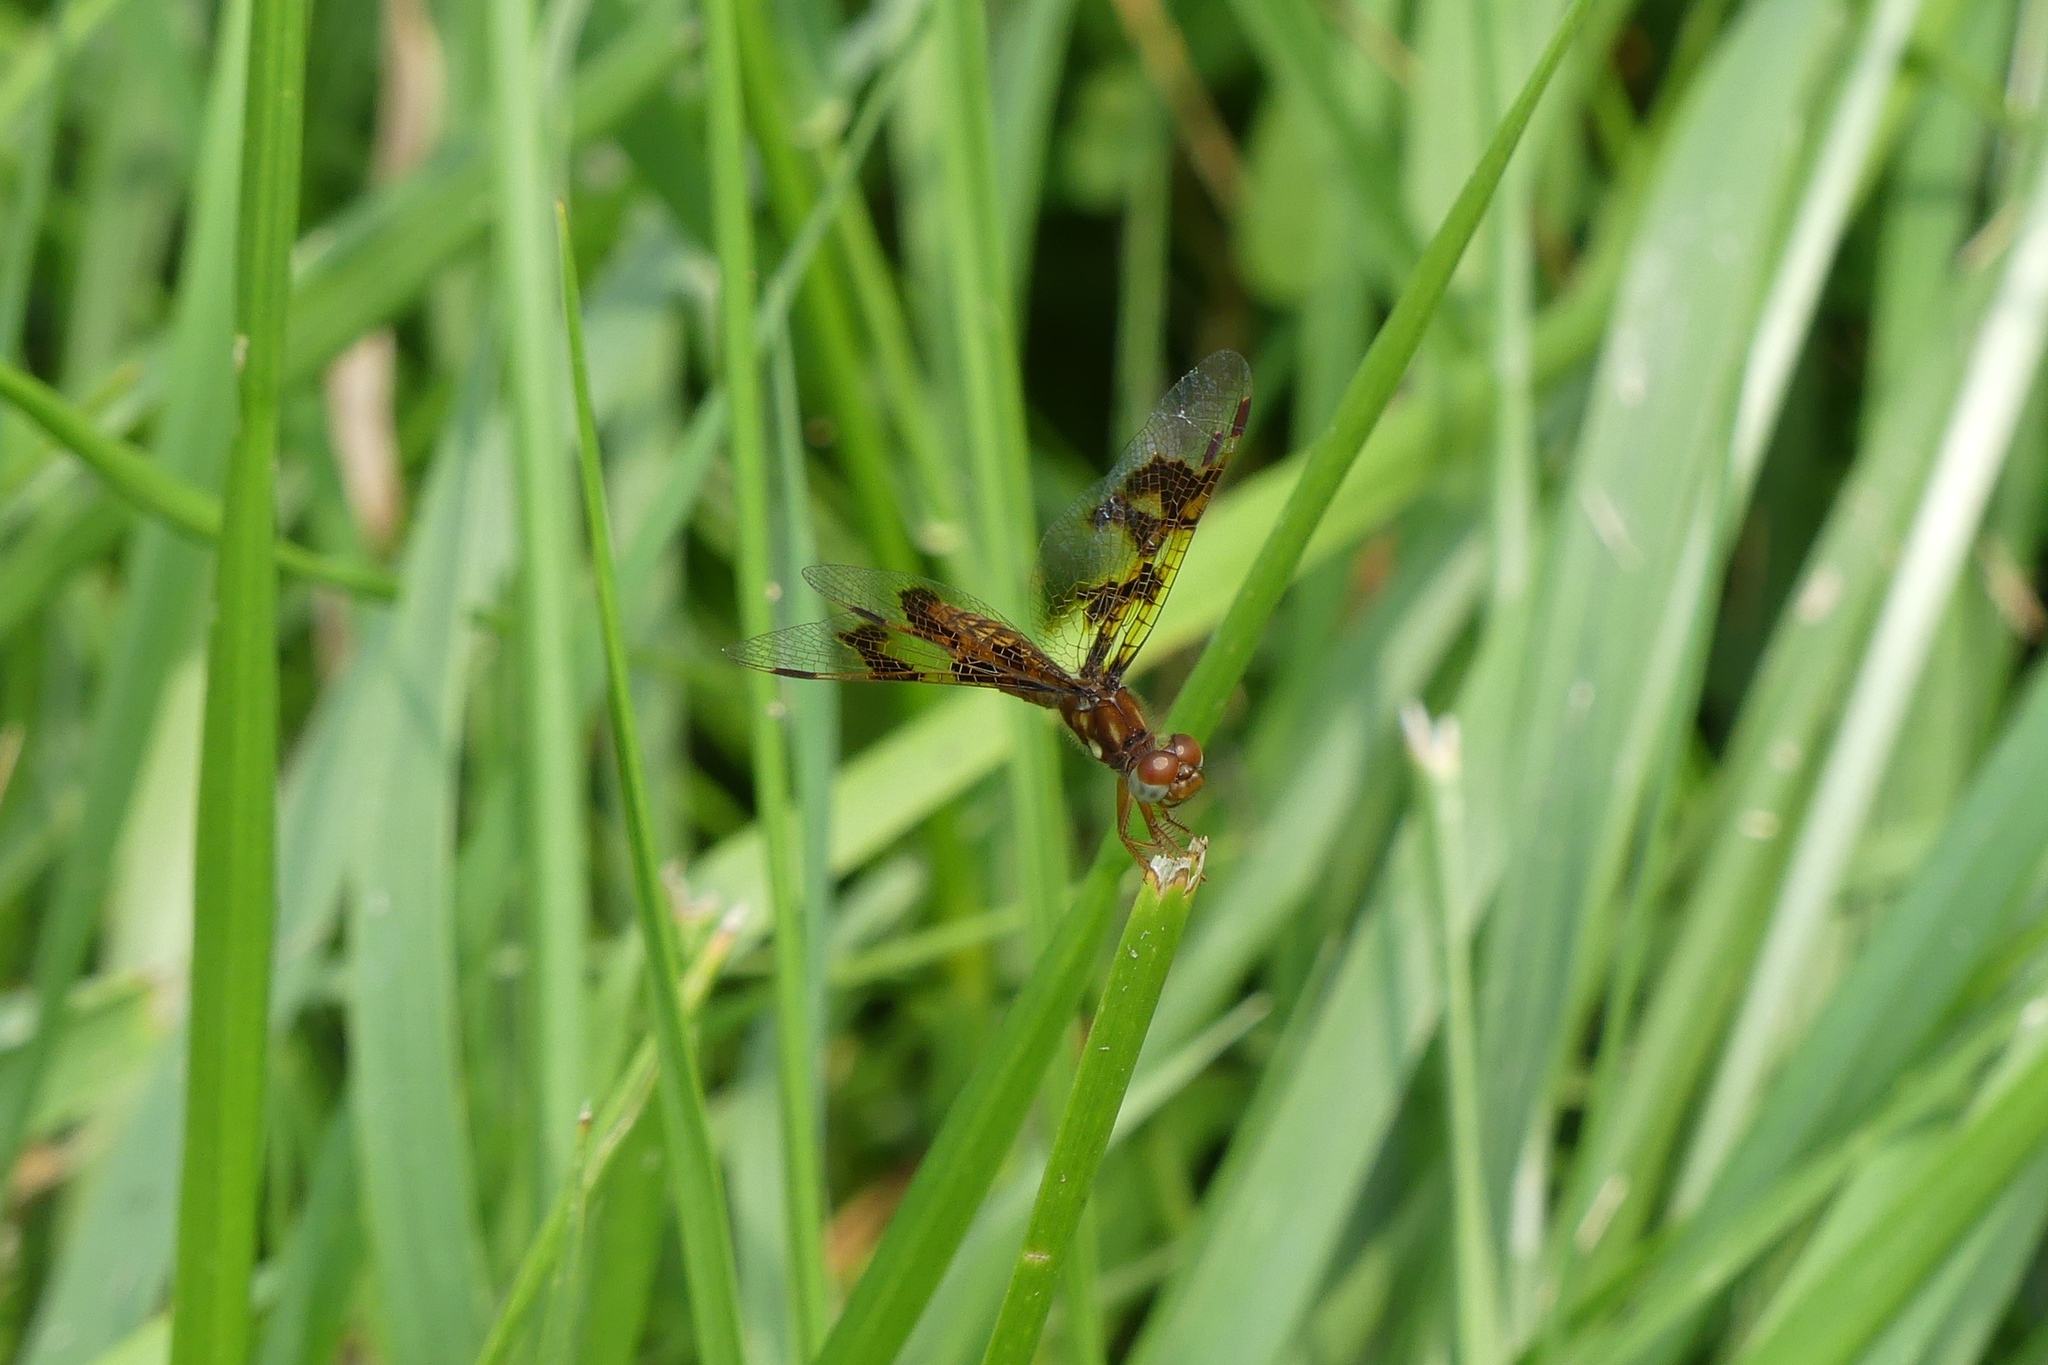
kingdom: Animalia
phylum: Arthropoda
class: Insecta
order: Odonata
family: Libellulidae
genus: Perithemis
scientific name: Perithemis tenera
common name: Eastern amberwing
